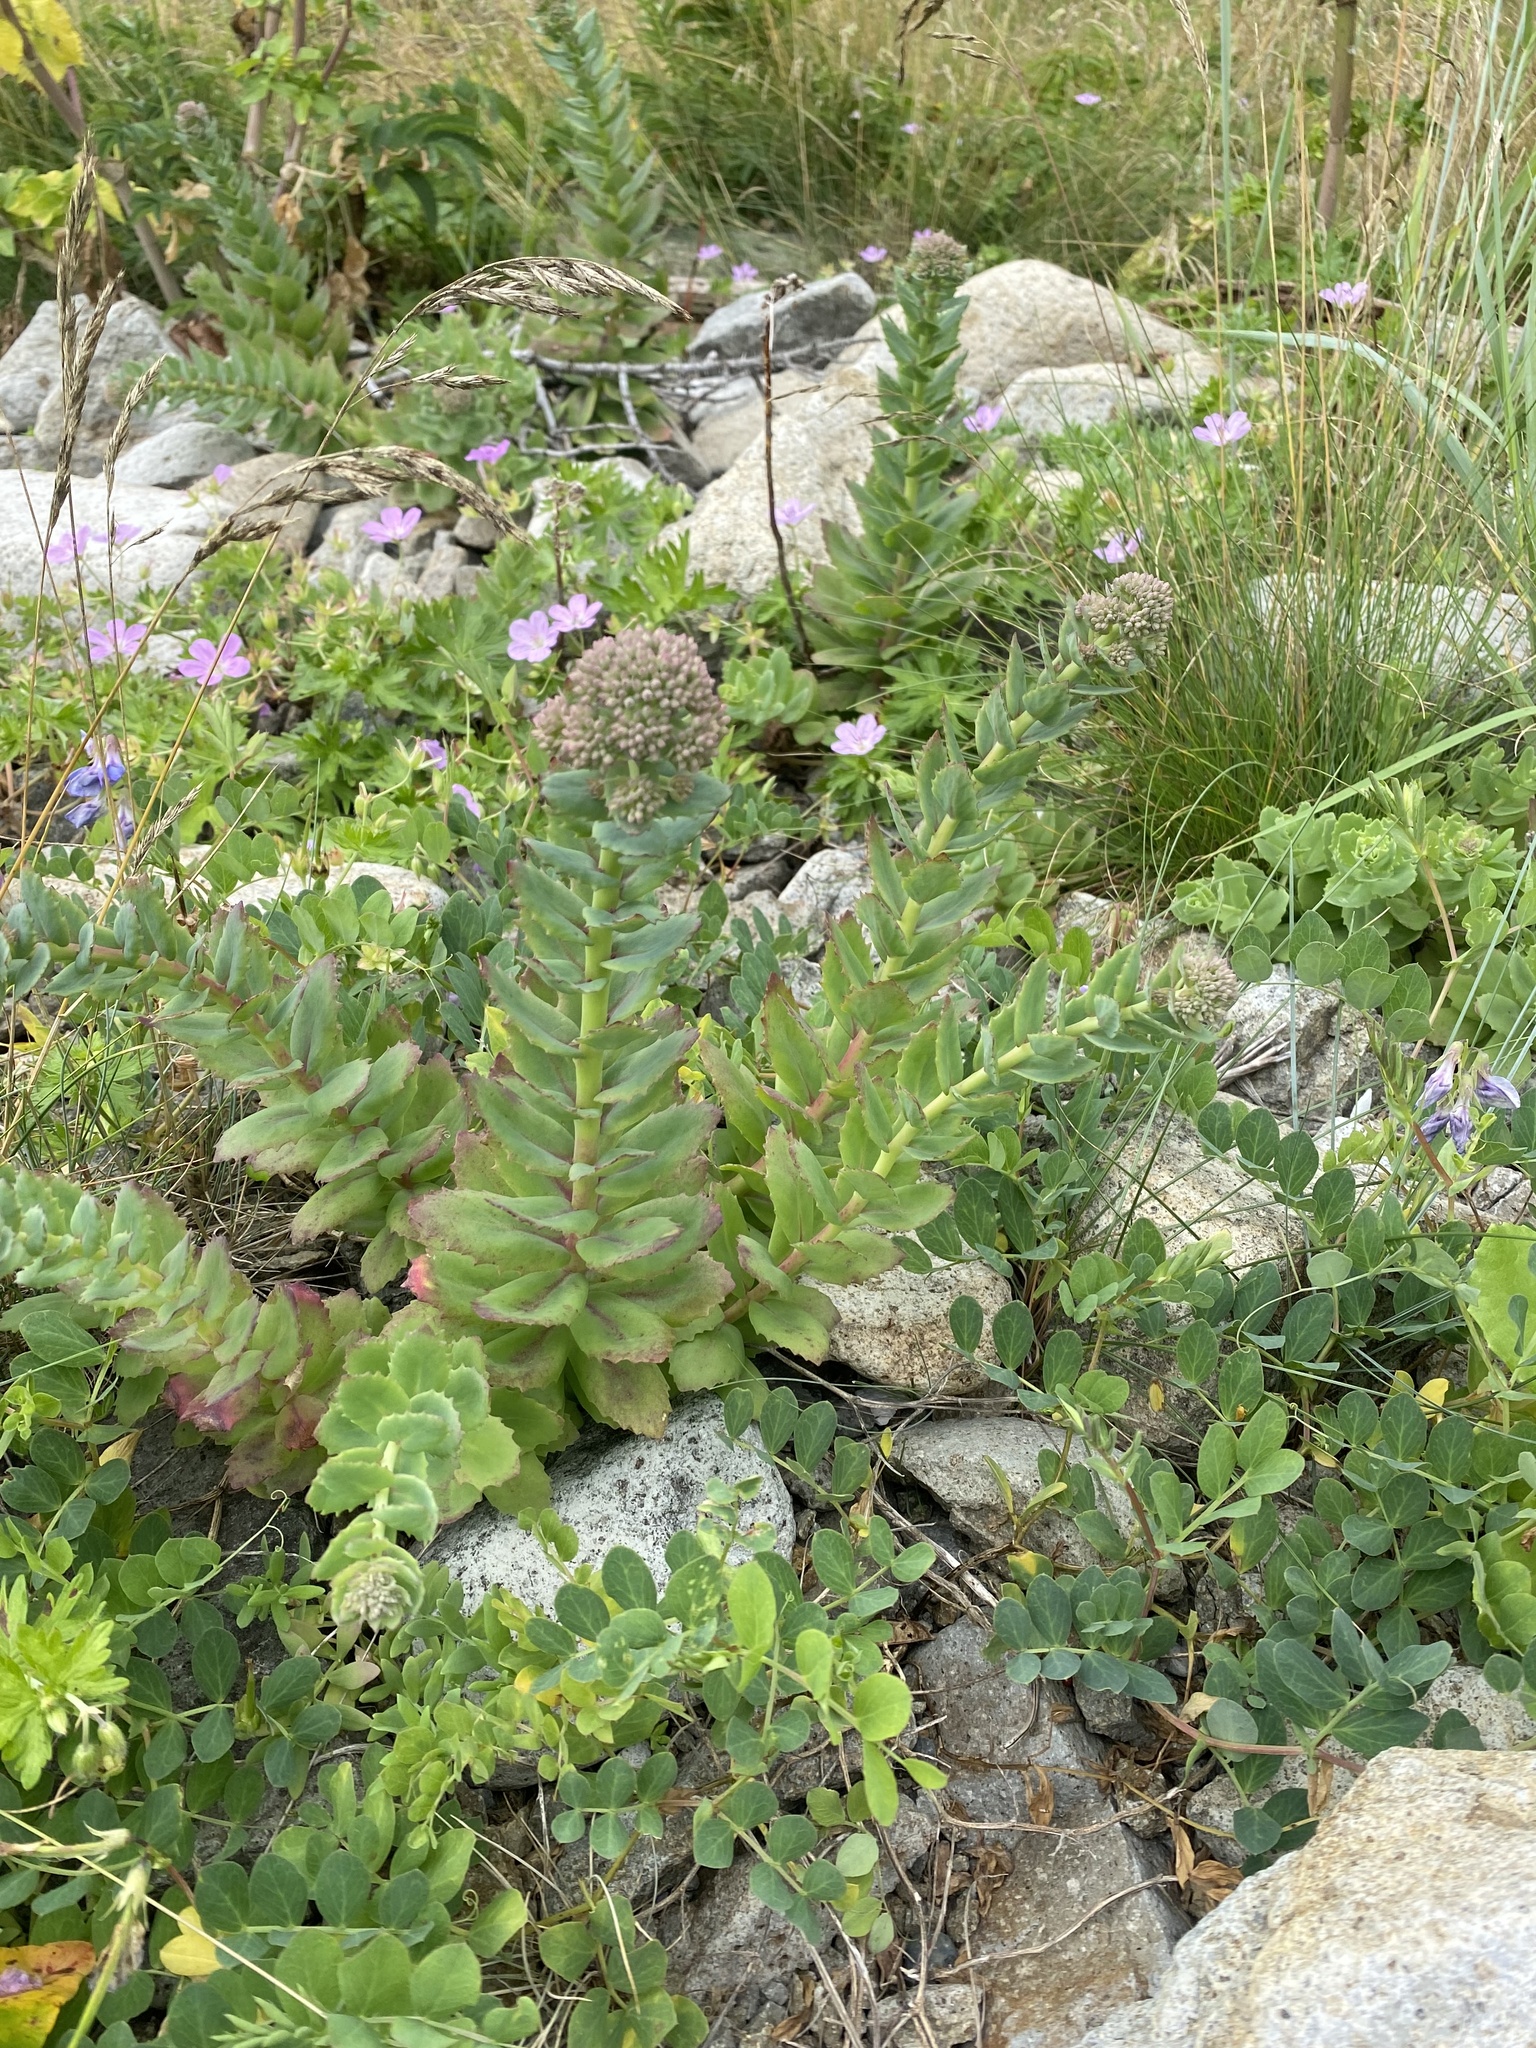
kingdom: Plantae
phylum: Tracheophyta
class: Magnoliopsida
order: Saxifragales
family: Crassulaceae
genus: Hylotelephium
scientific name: Hylotelephium maximum
